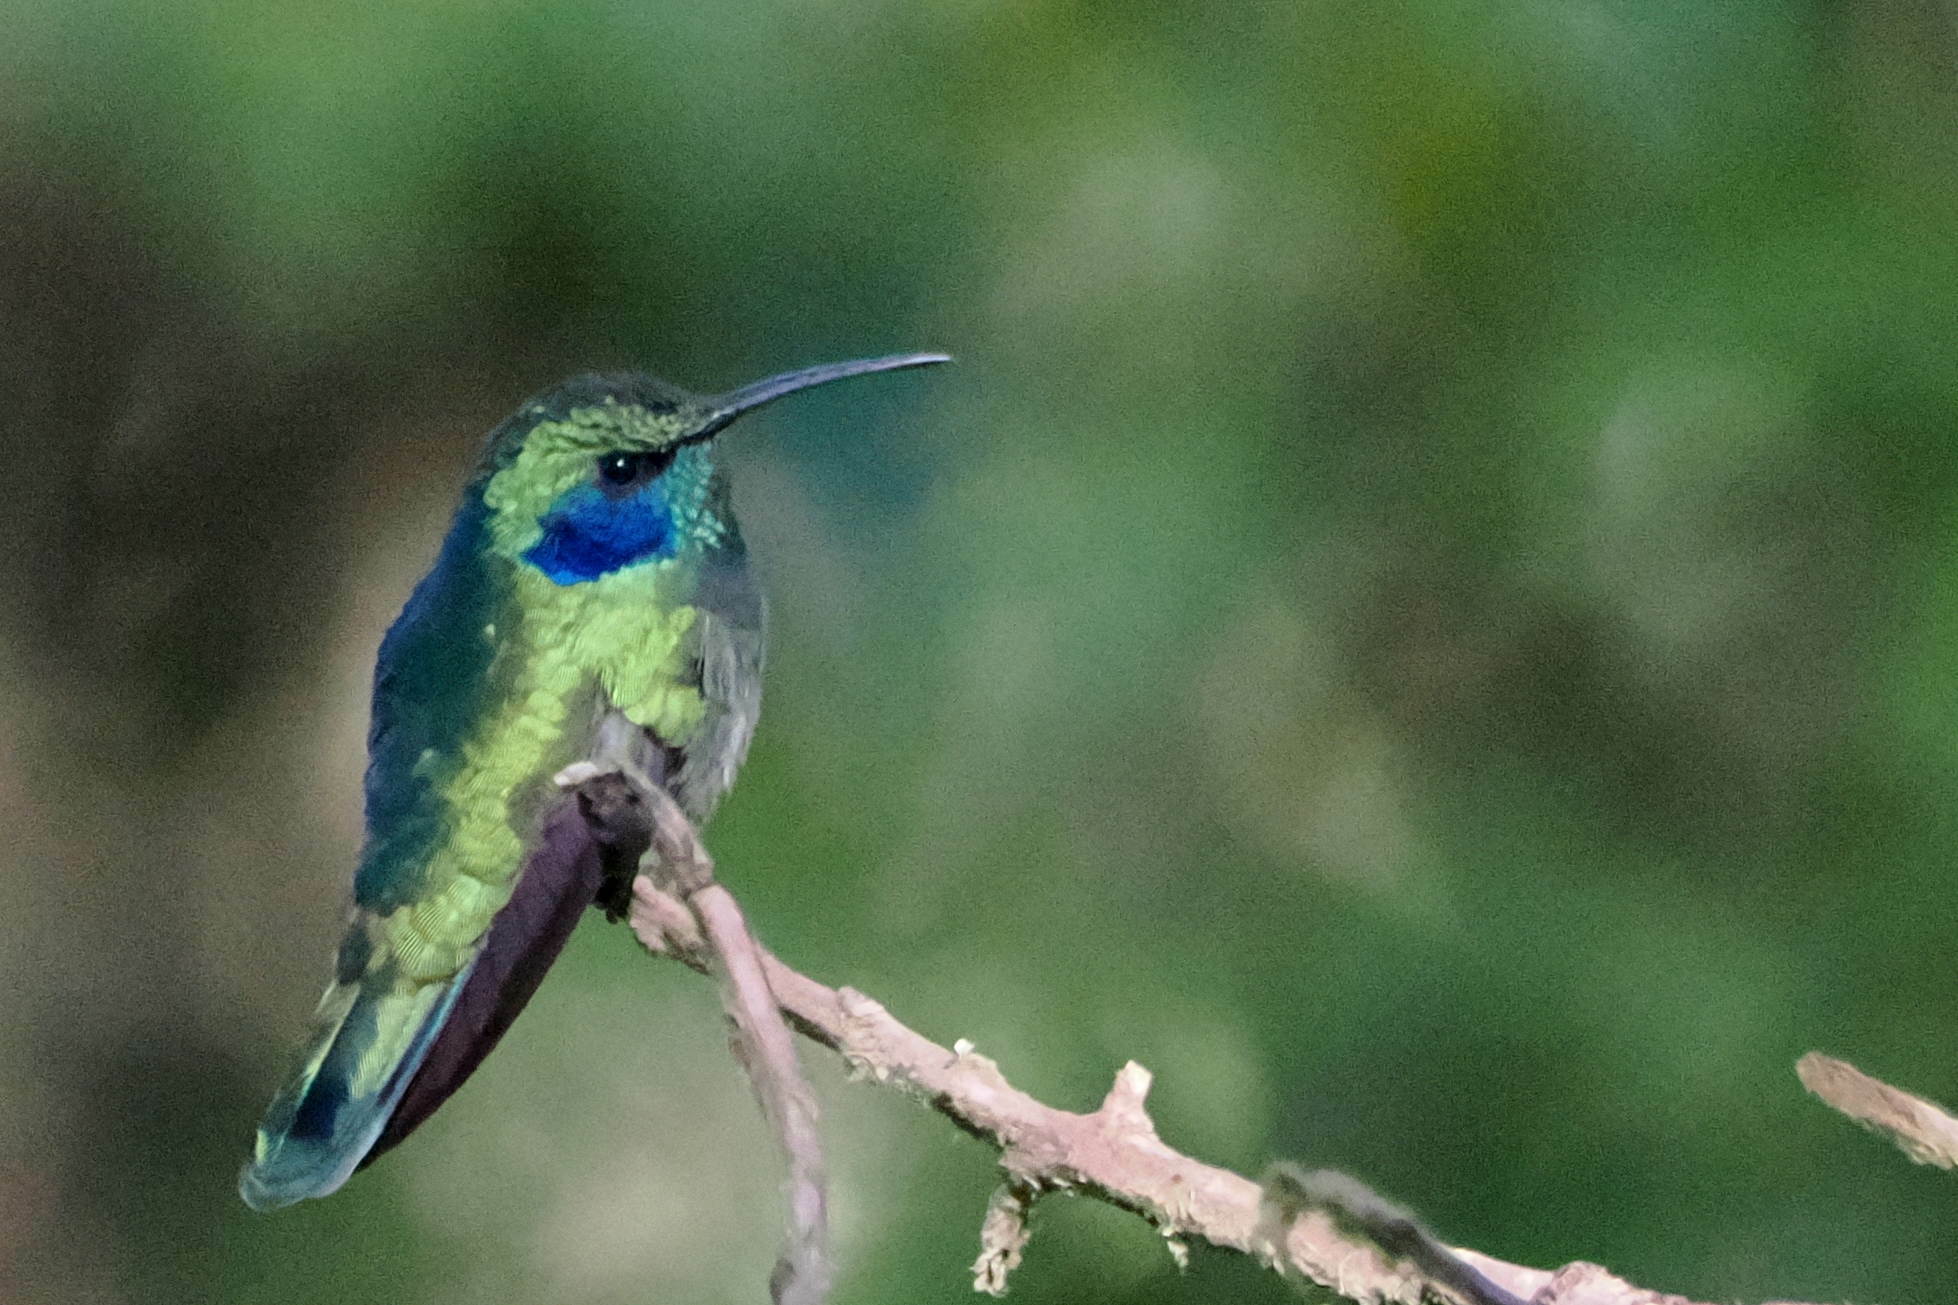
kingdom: Animalia
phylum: Chordata
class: Aves
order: Apodiformes
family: Trochilidae
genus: Colibri
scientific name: Colibri cyanotus
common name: Lesser violetear
